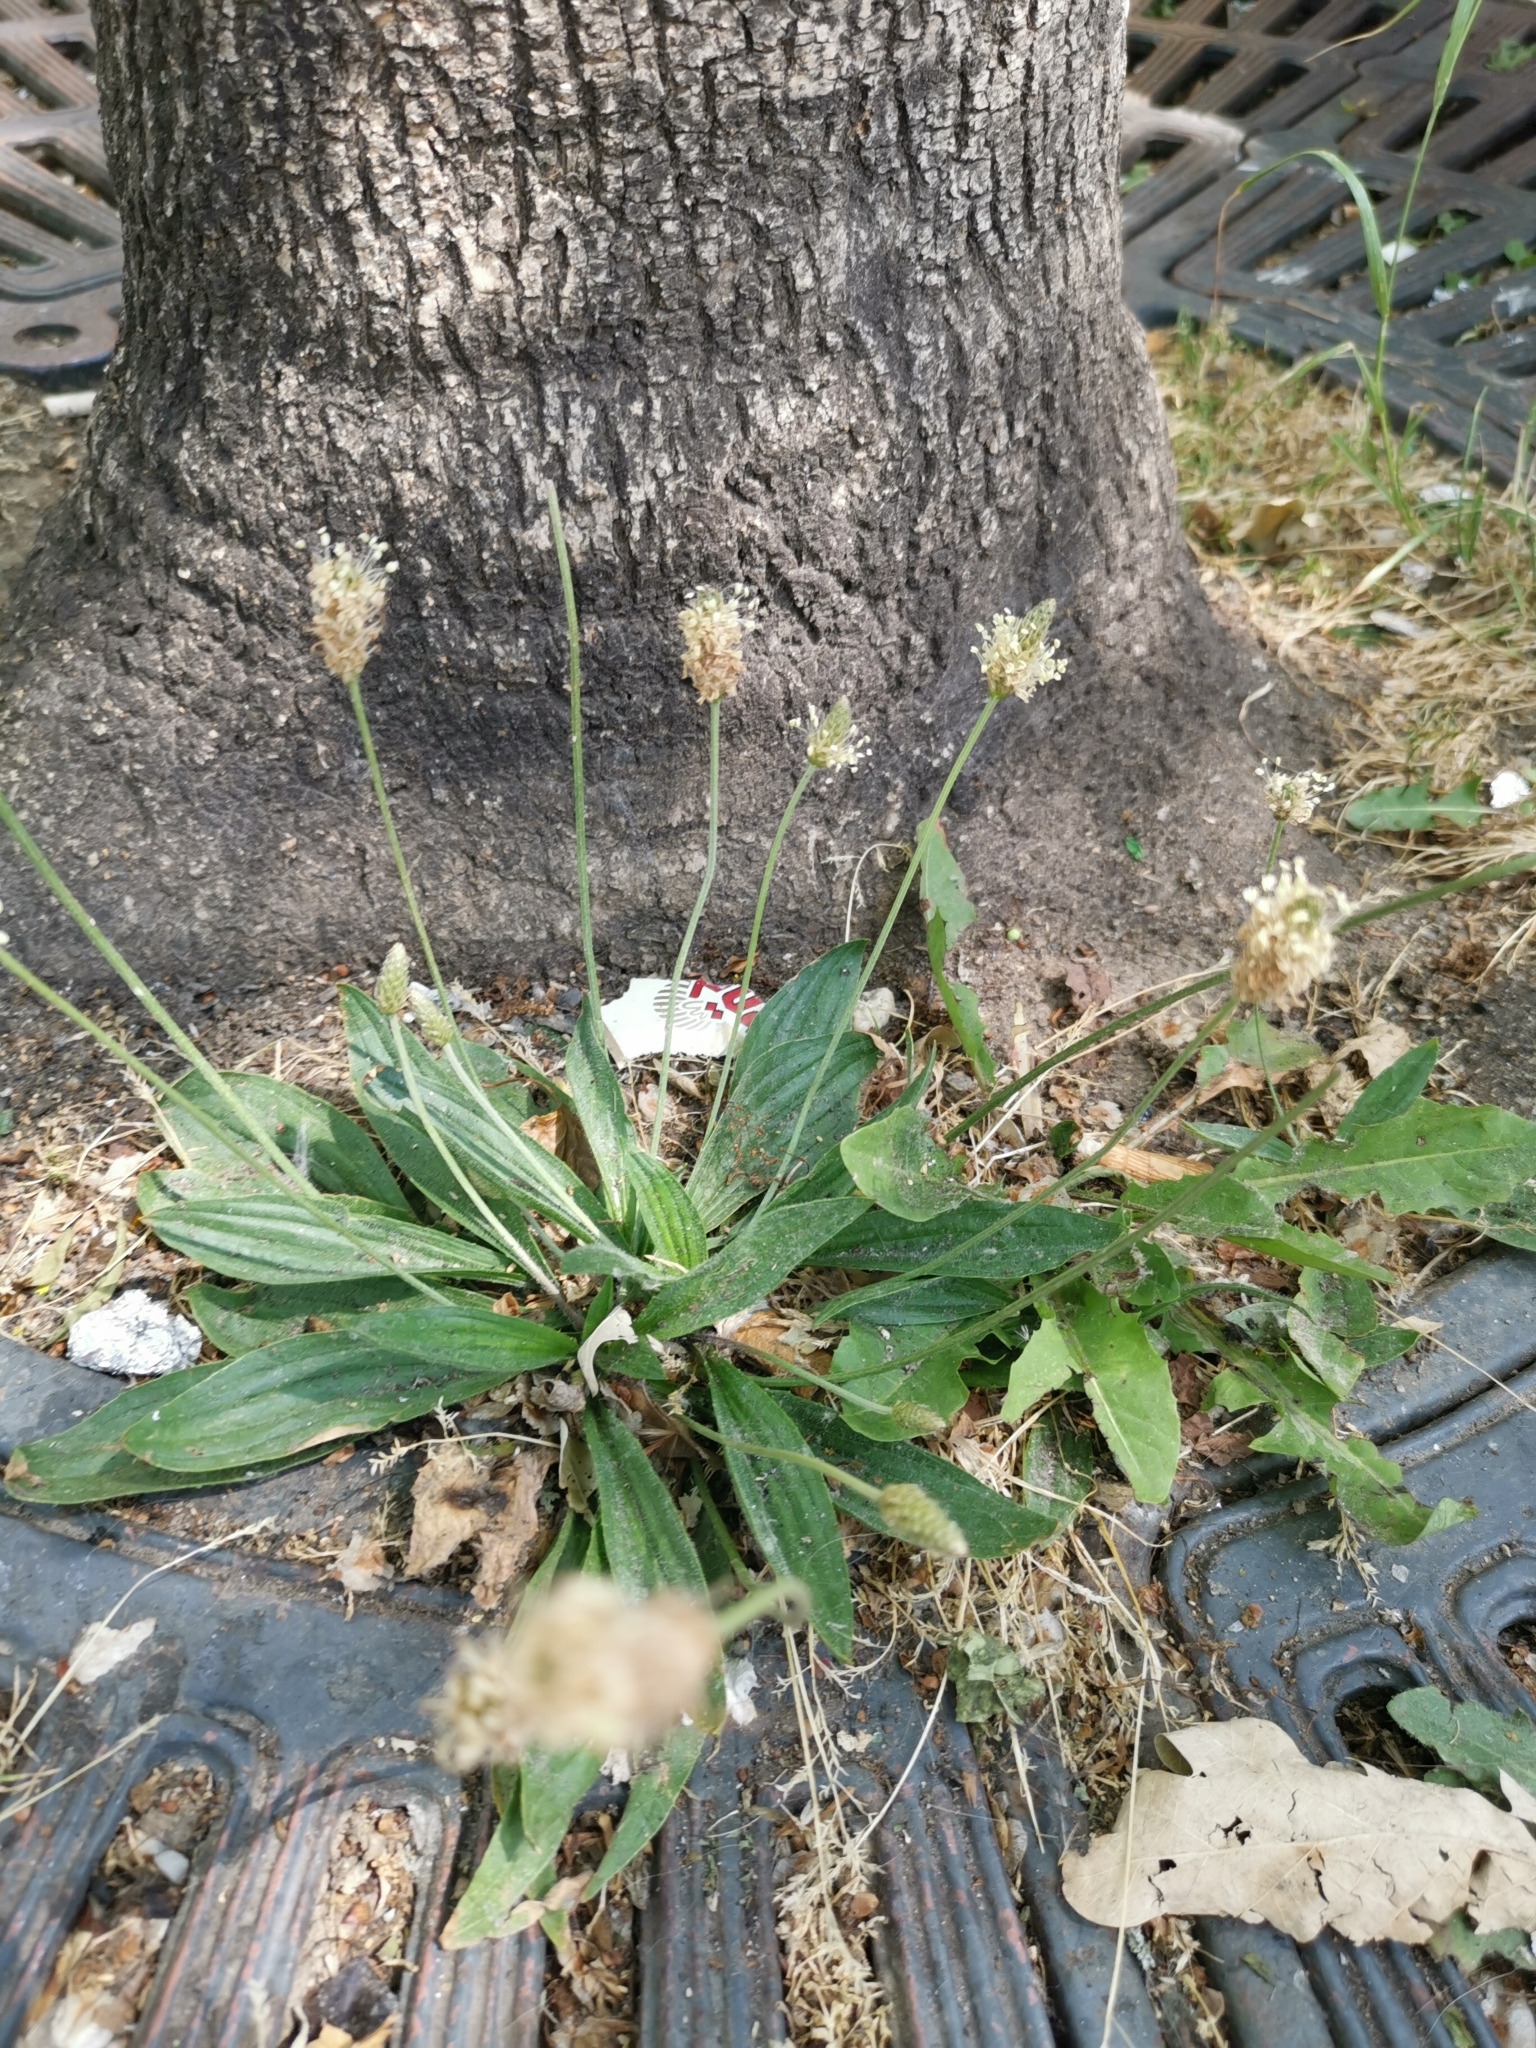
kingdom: Plantae
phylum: Tracheophyta
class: Magnoliopsida
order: Lamiales
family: Plantaginaceae
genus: Plantago
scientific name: Plantago lanceolata
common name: Ribwort plantain
